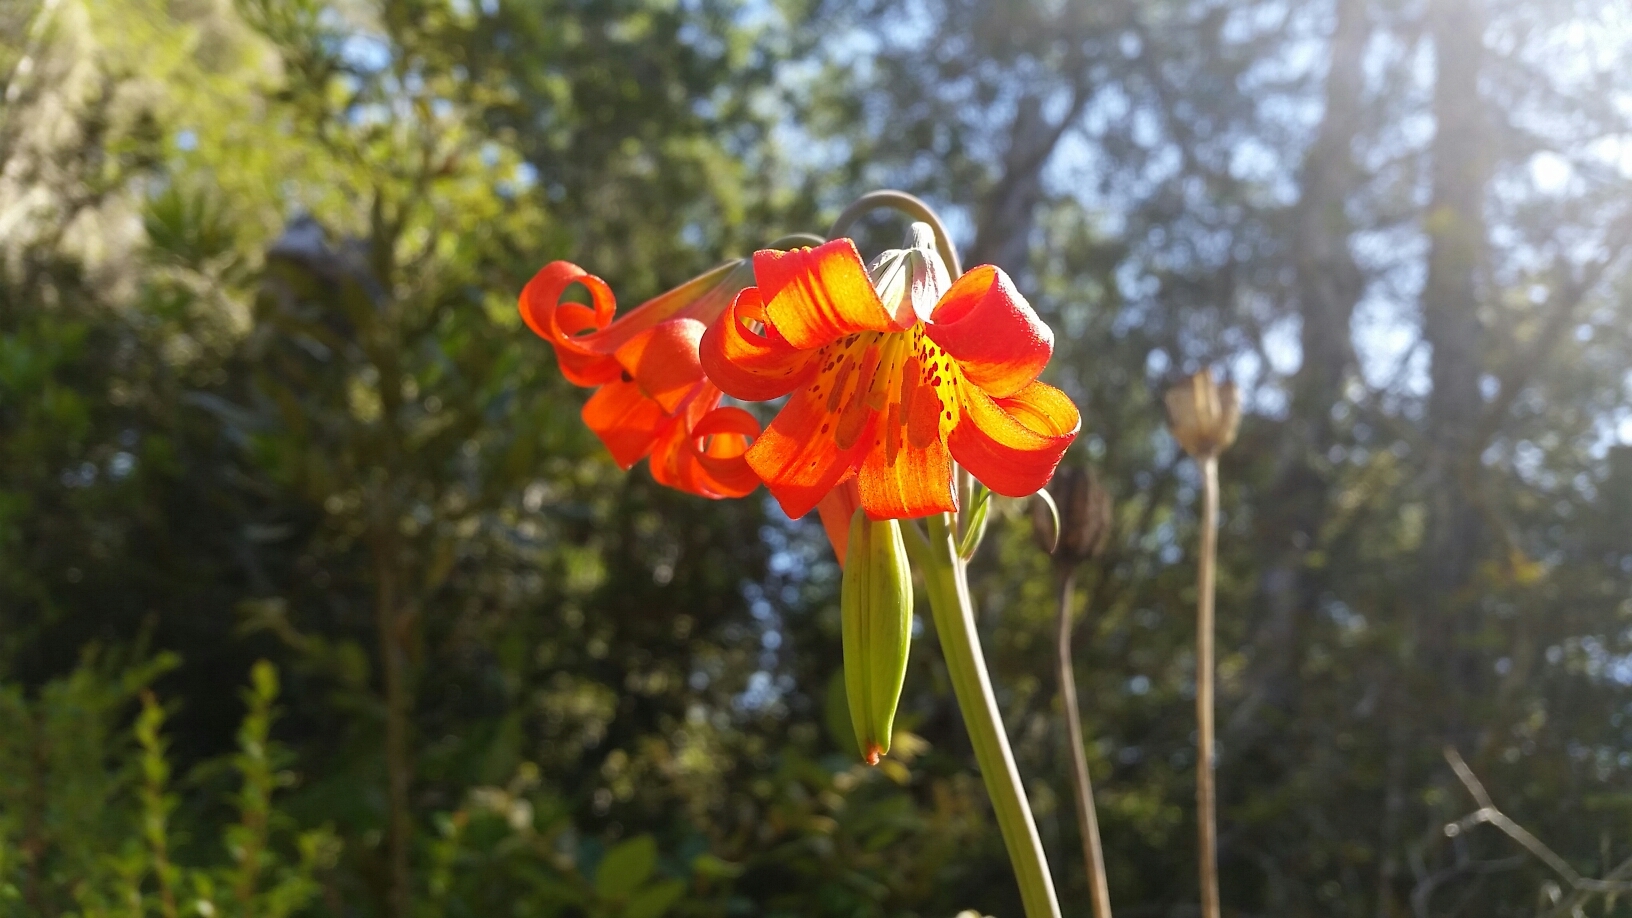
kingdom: Plantae
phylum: Tracheophyta
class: Liliopsida
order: Liliales
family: Liliaceae
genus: Lilium
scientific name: Lilium maritimum
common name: Coastal lily
